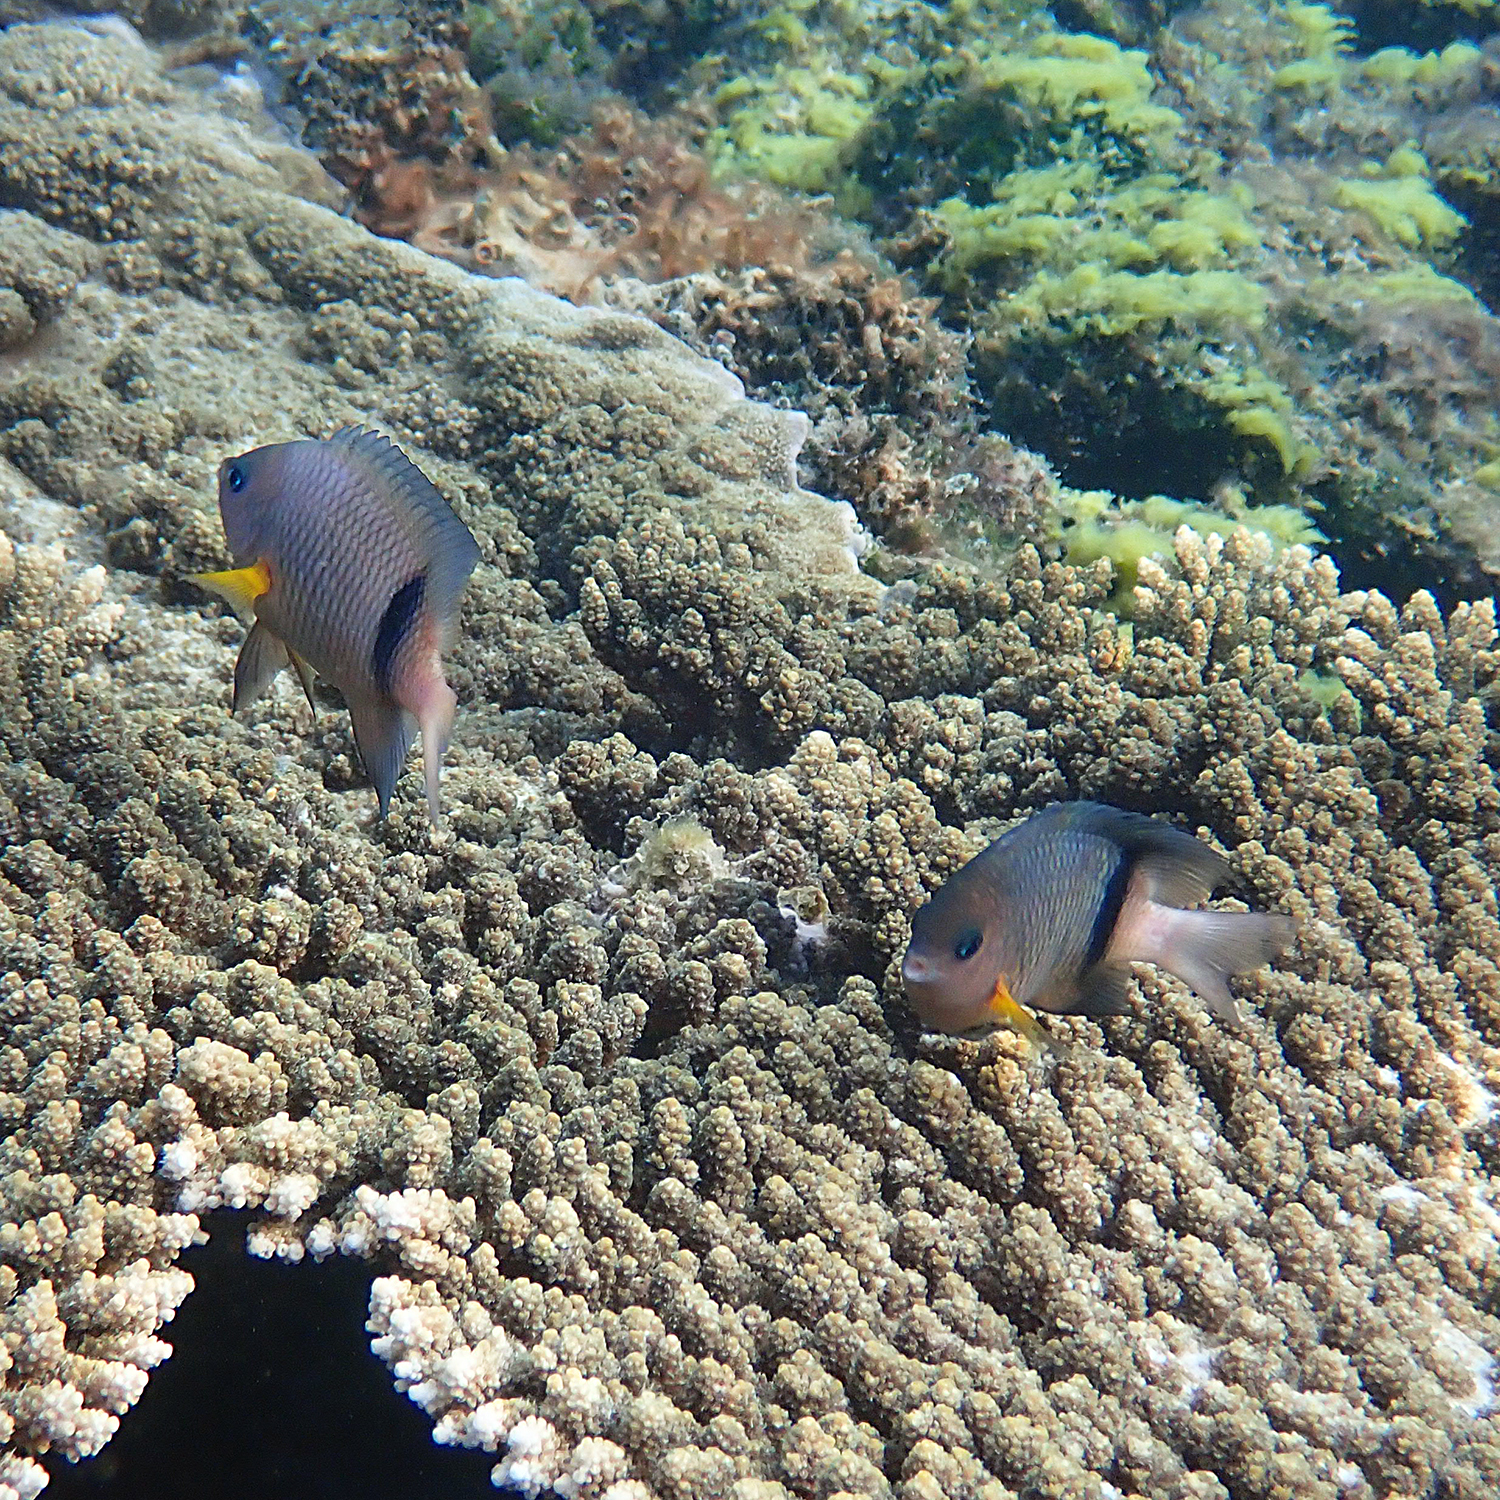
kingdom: Animalia
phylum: Chordata
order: Perciformes
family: Pomacentridae
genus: Plectroglyphidodon
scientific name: Plectroglyphidodon dickii
